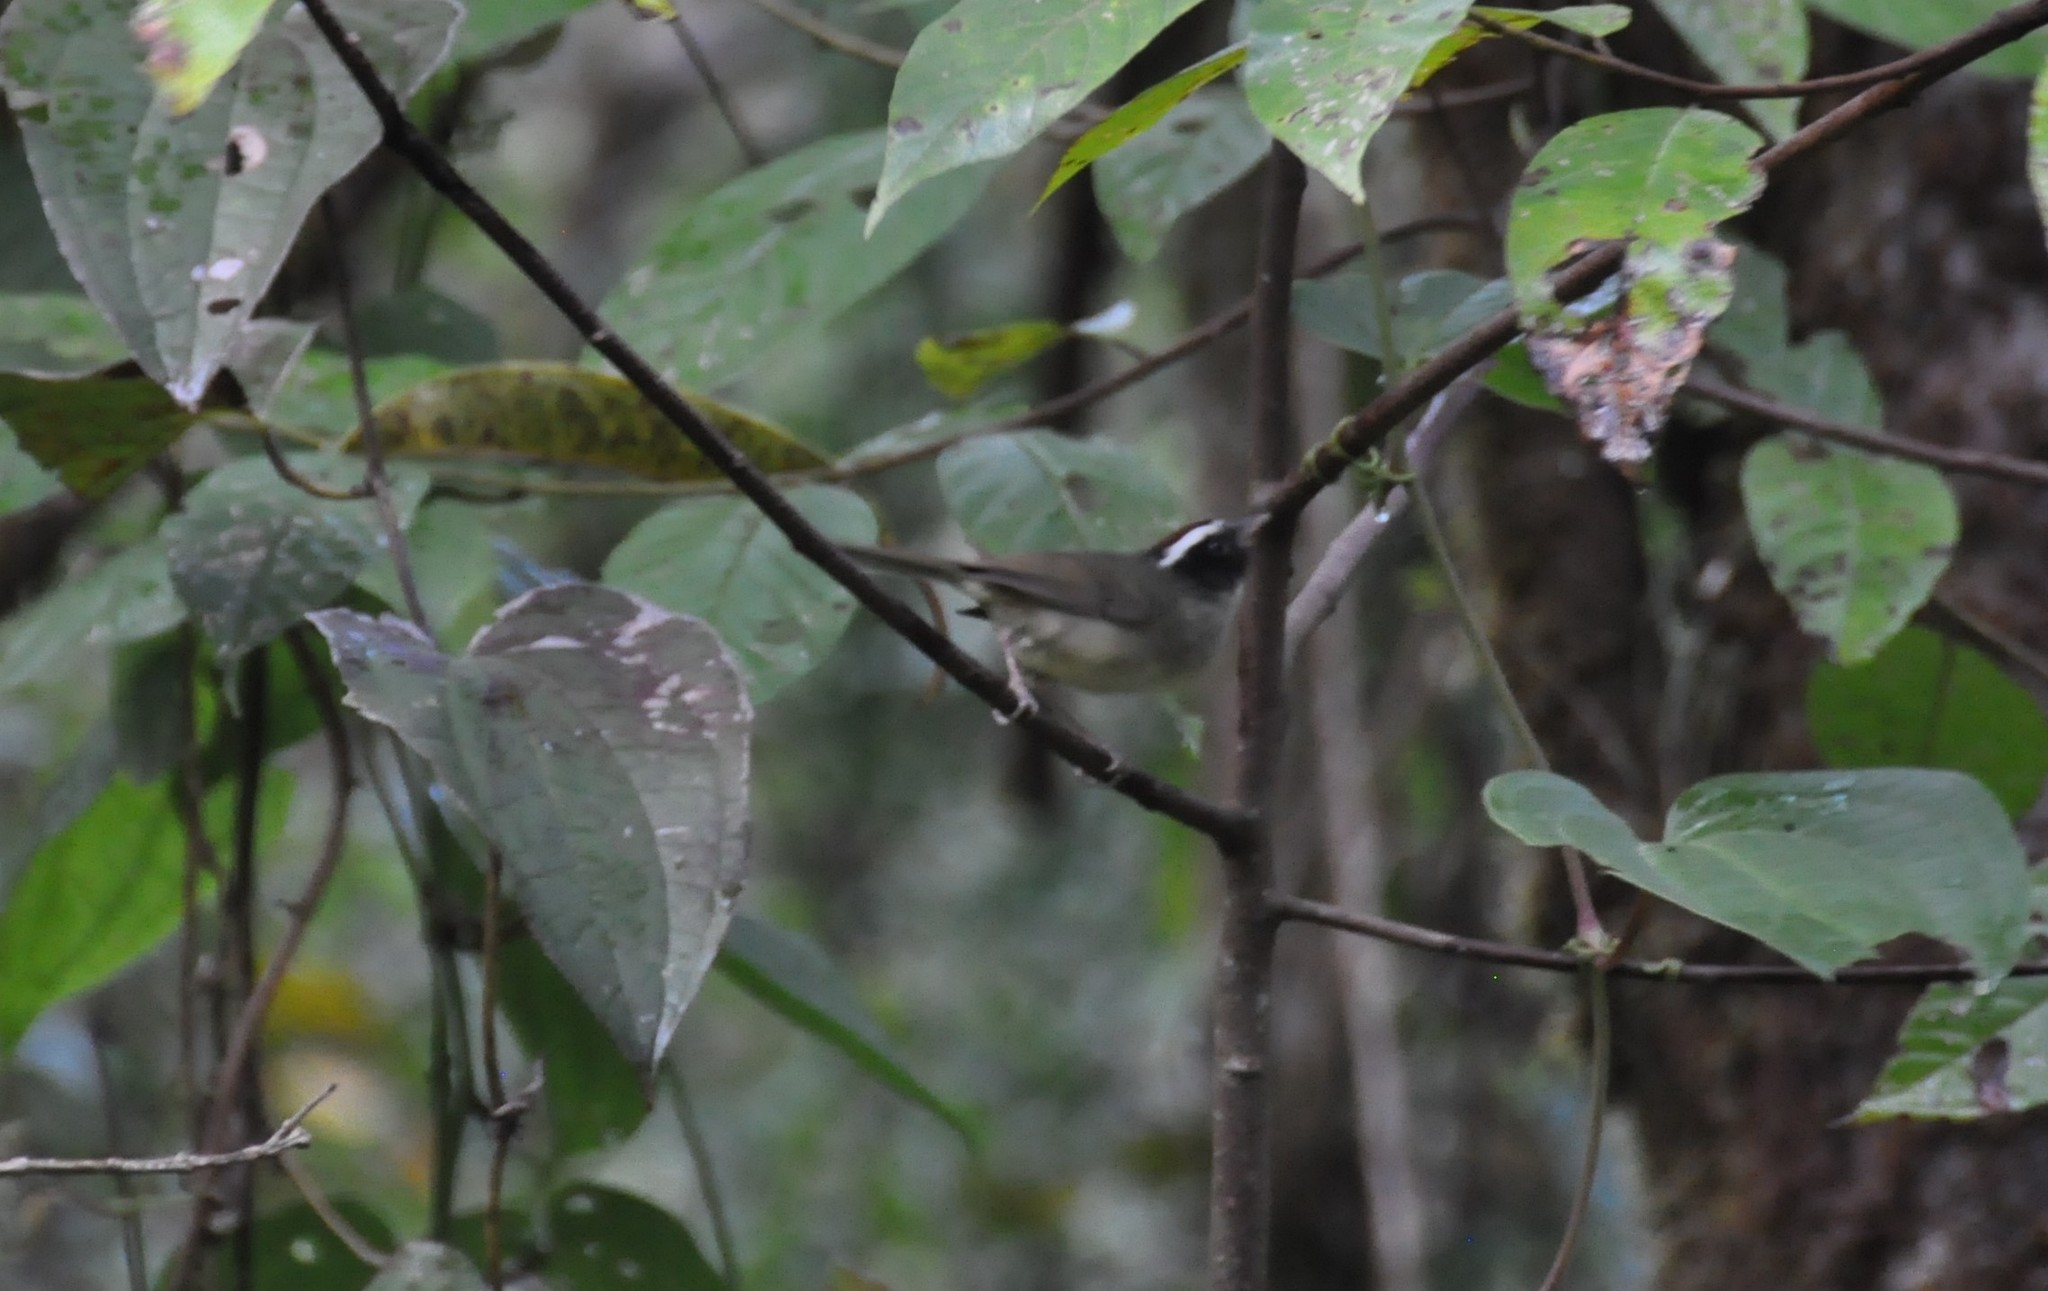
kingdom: Animalia
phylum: Chordata
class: Aves
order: Passeriformes
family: Parulidae
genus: Basileuterus
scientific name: Basileuterus melanogenys
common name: Black-cheeked warbler
